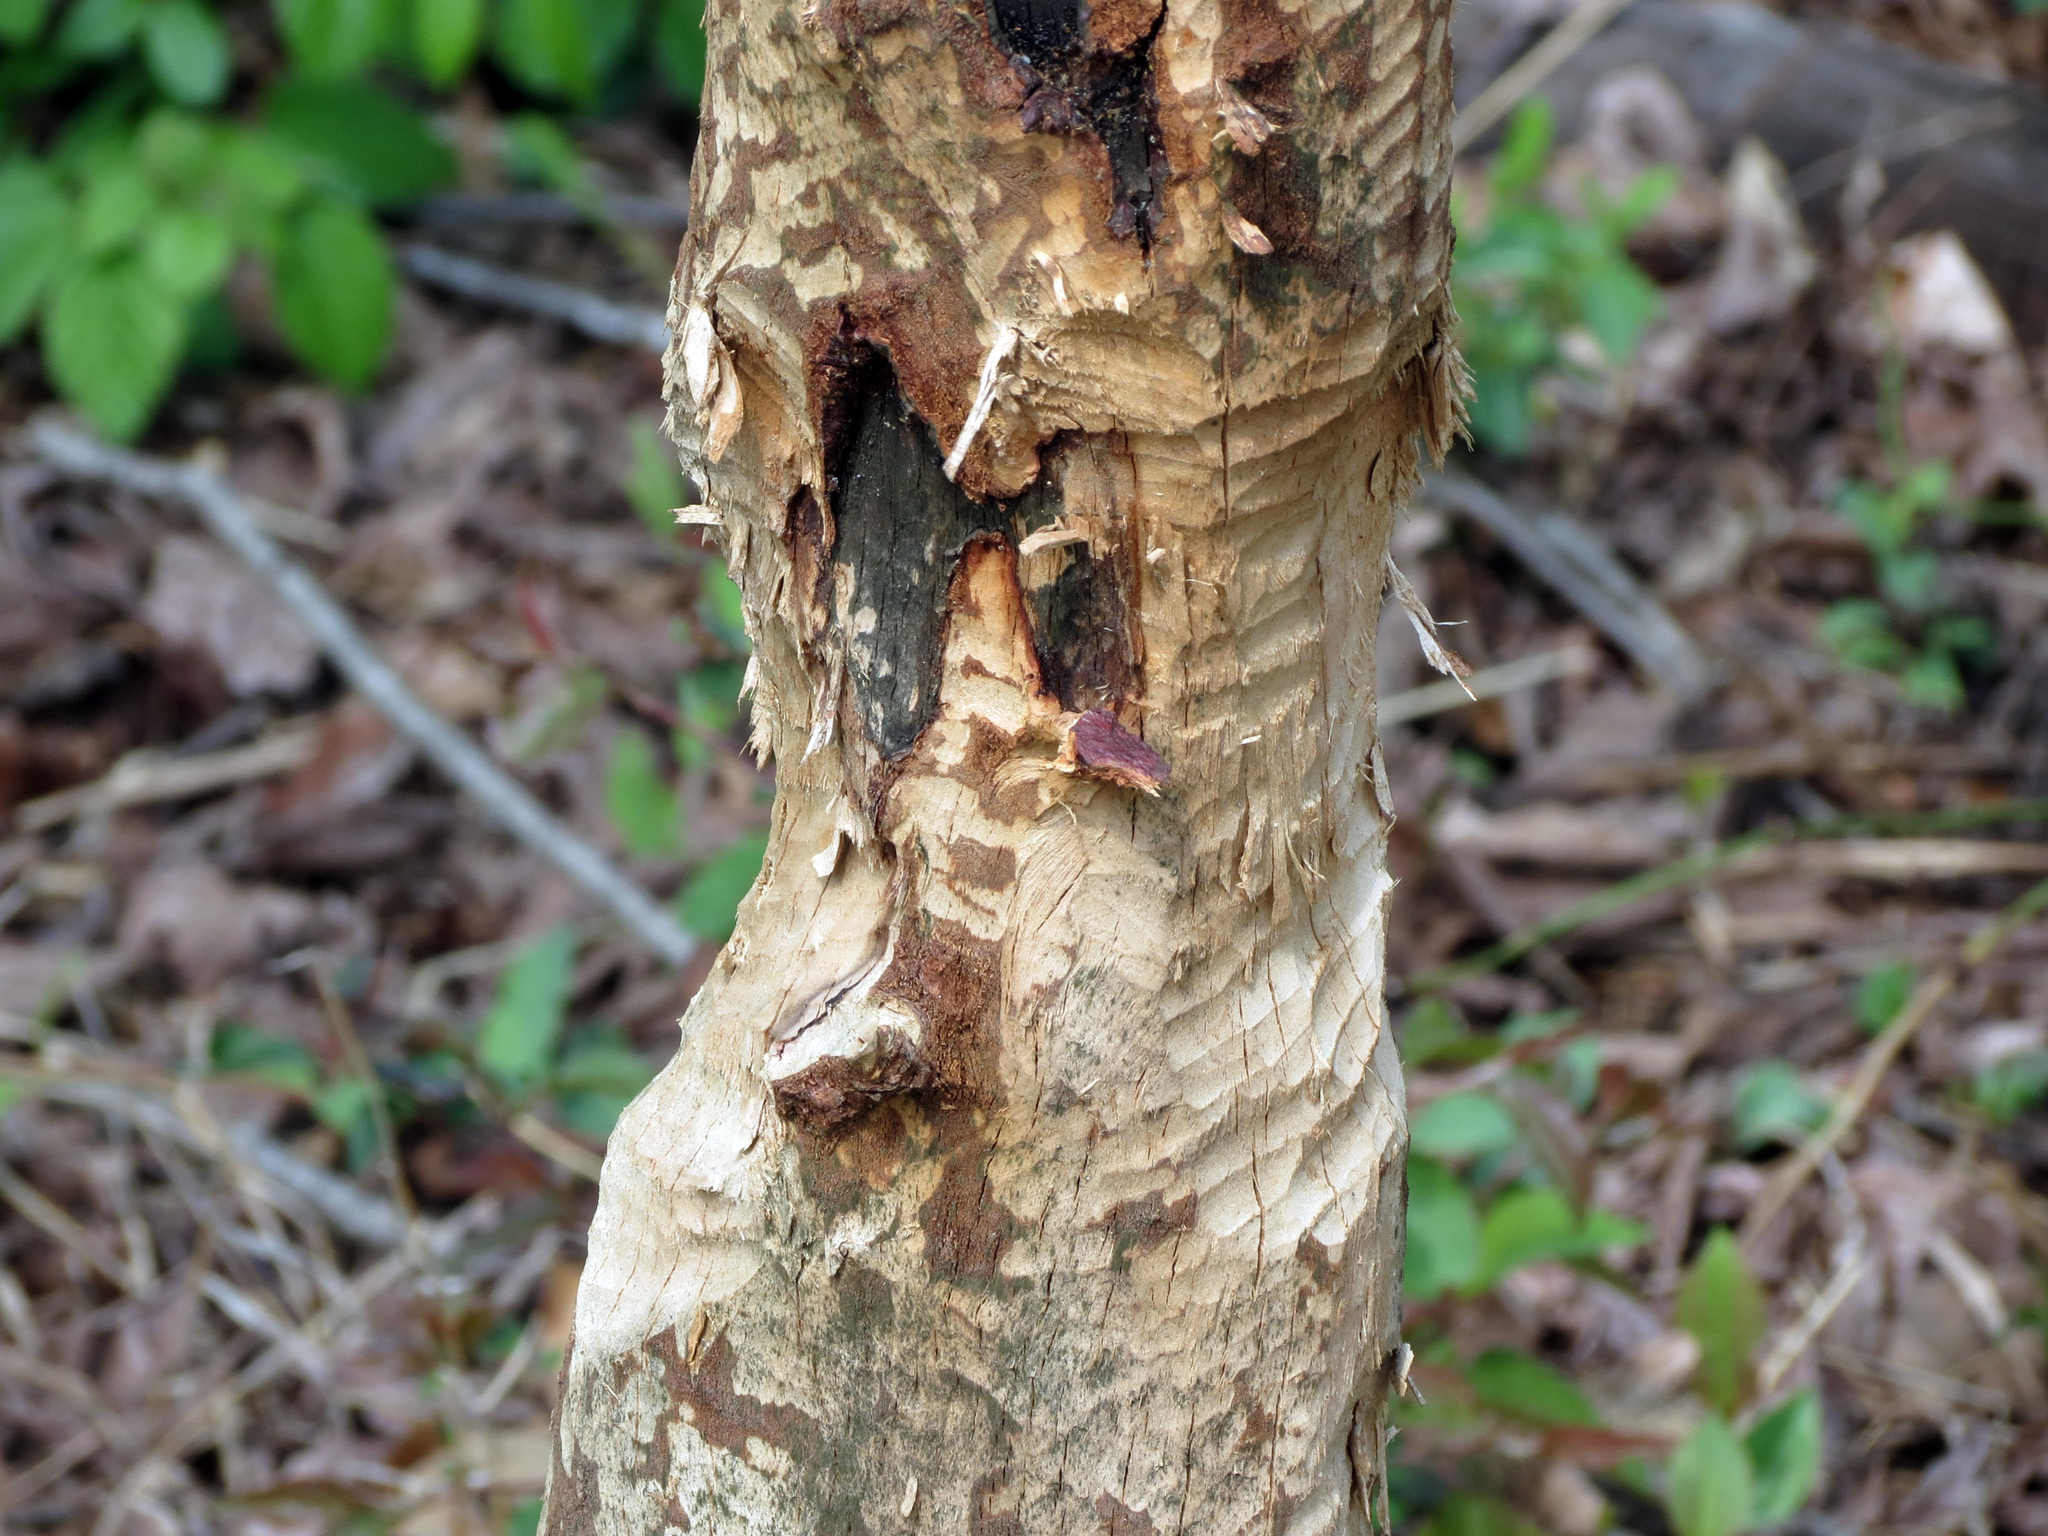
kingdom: Animalia
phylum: Chordata
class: Mammalia
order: Rodentia
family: Castoridae
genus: Castor
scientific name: Castor canadensis
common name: American beaver
